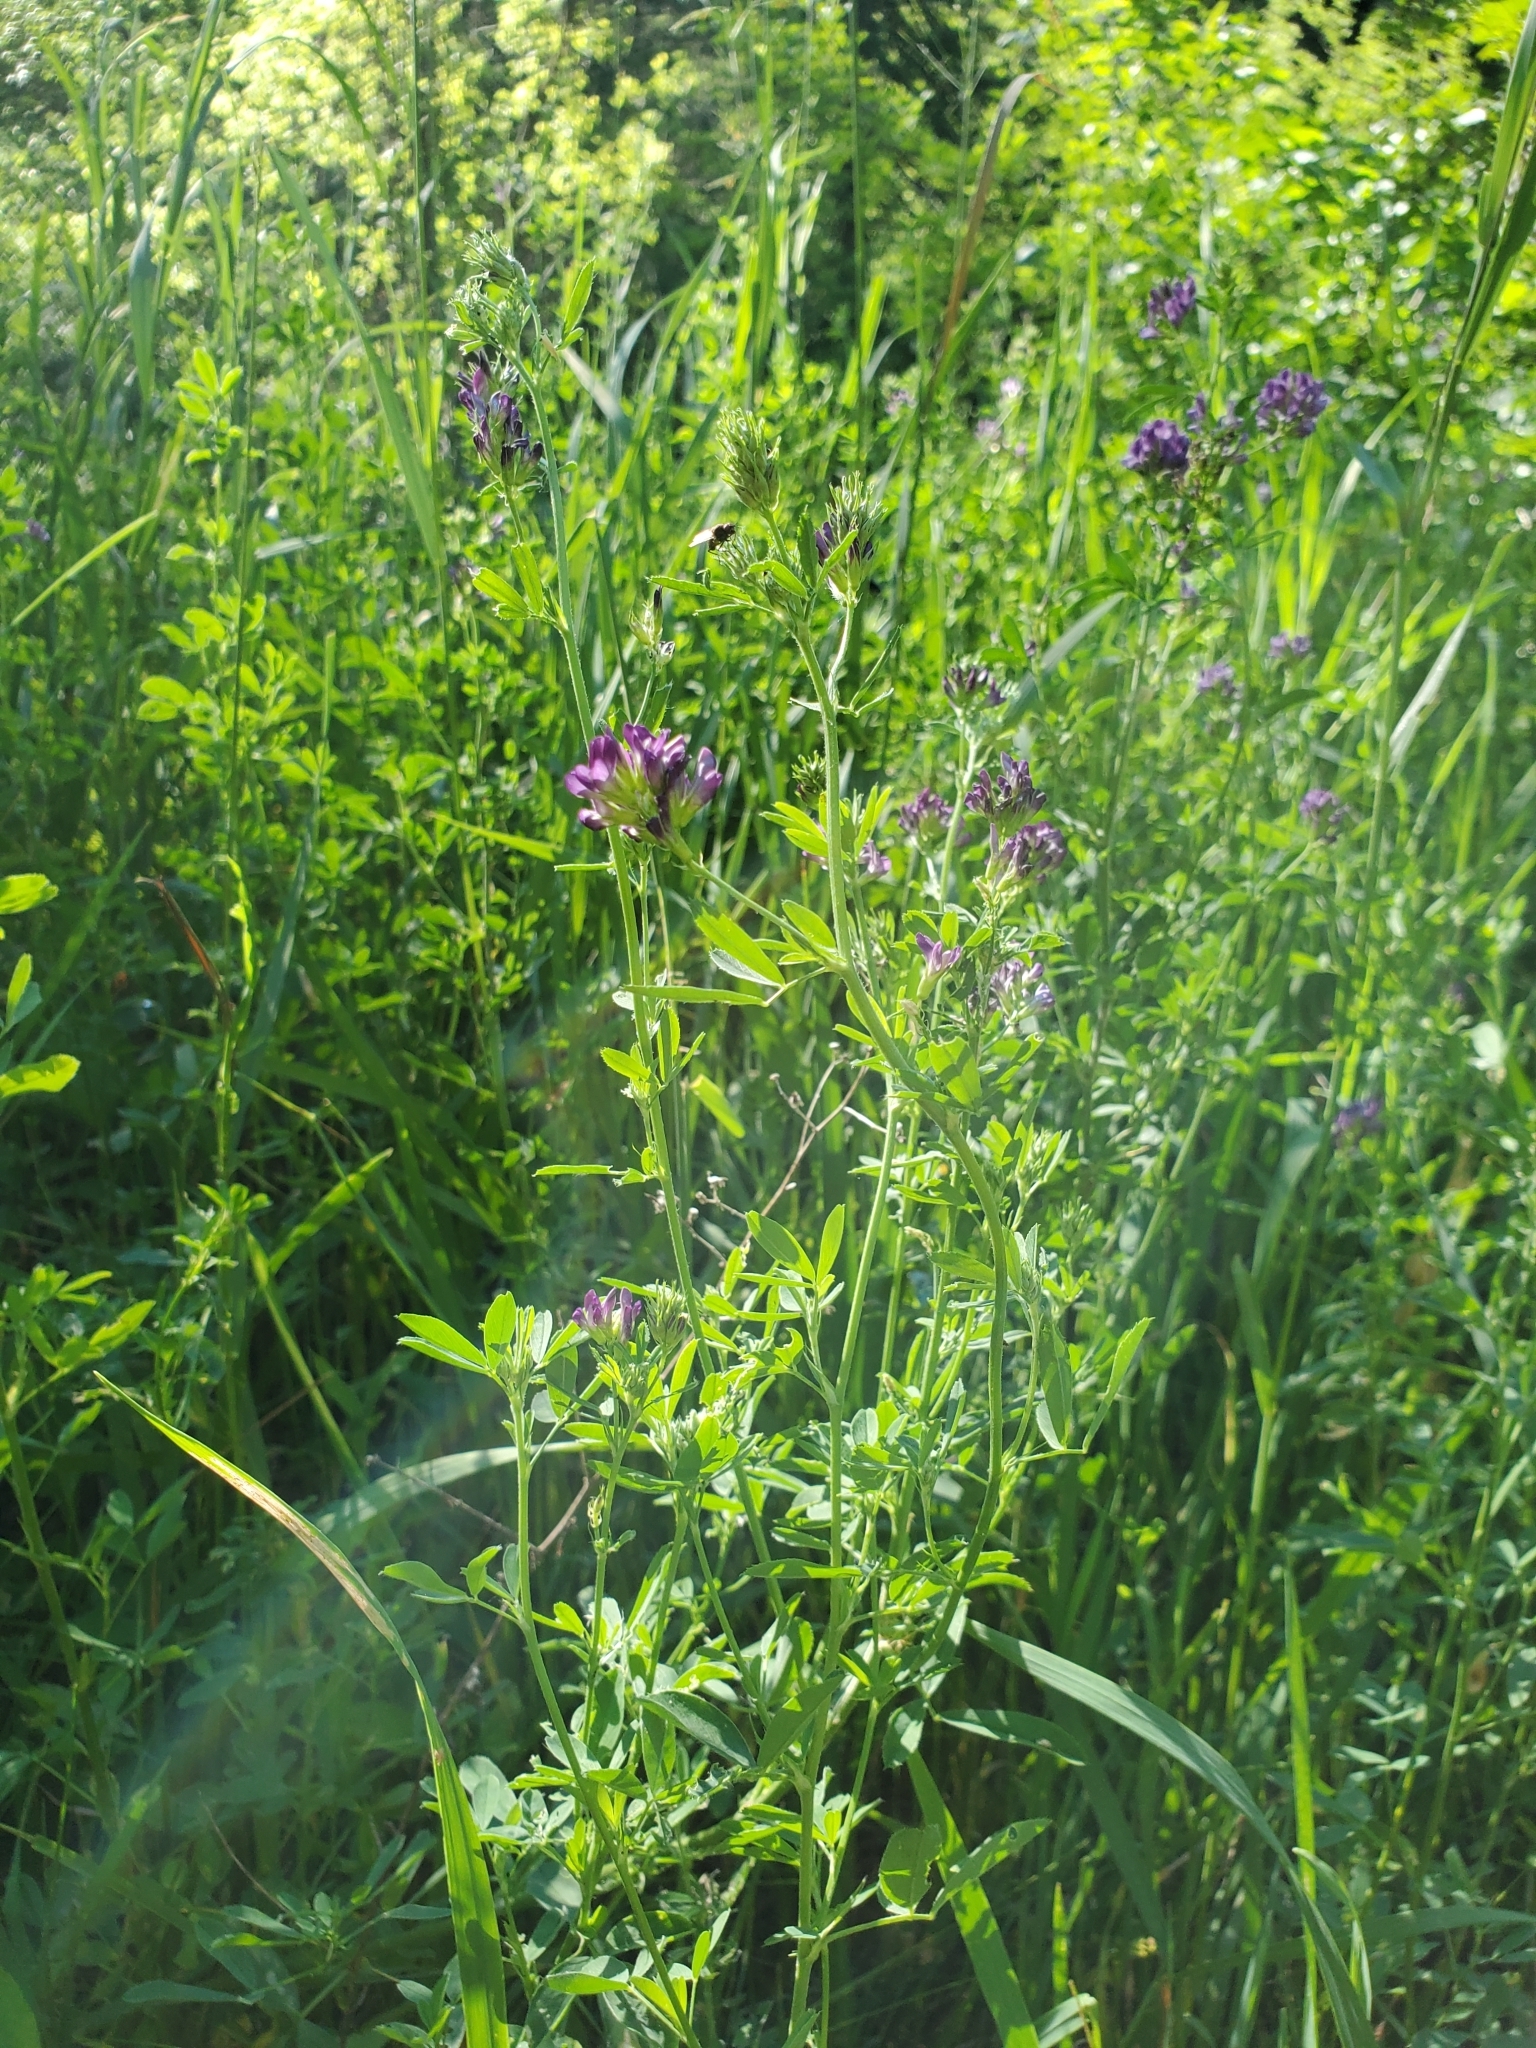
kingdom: Plantae
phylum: Tracheophyta
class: Magnoliopsida
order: Fabales
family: Fabaceae
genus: Medicago
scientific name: Medicago sativa
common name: Alfalfa
